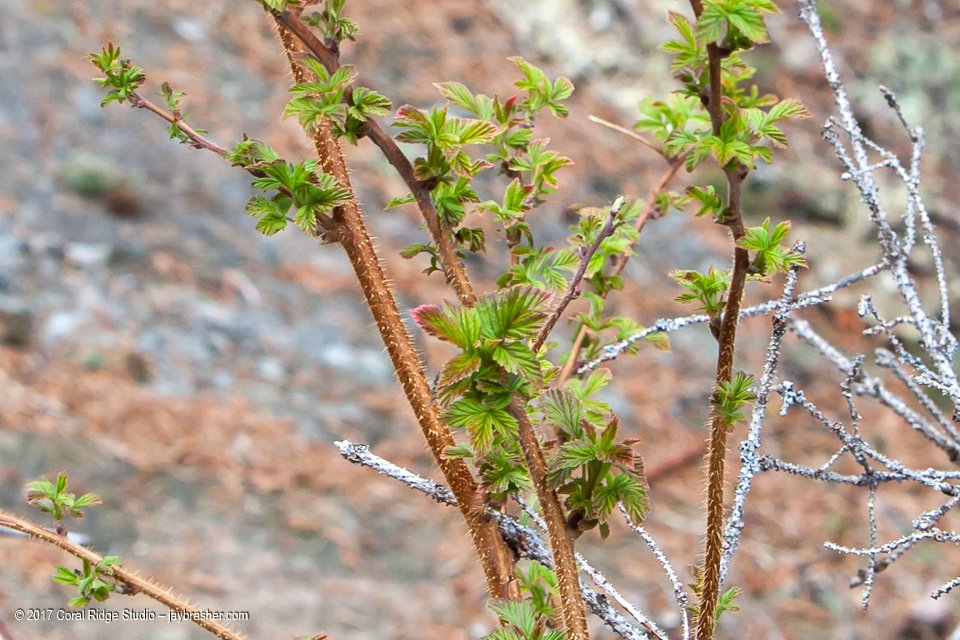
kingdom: Plantae
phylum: Tracheophyta
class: Magnoliopsida
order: Rosales
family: Rosaceae
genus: Rubus
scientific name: Rubus idaeus
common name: Raspberry
